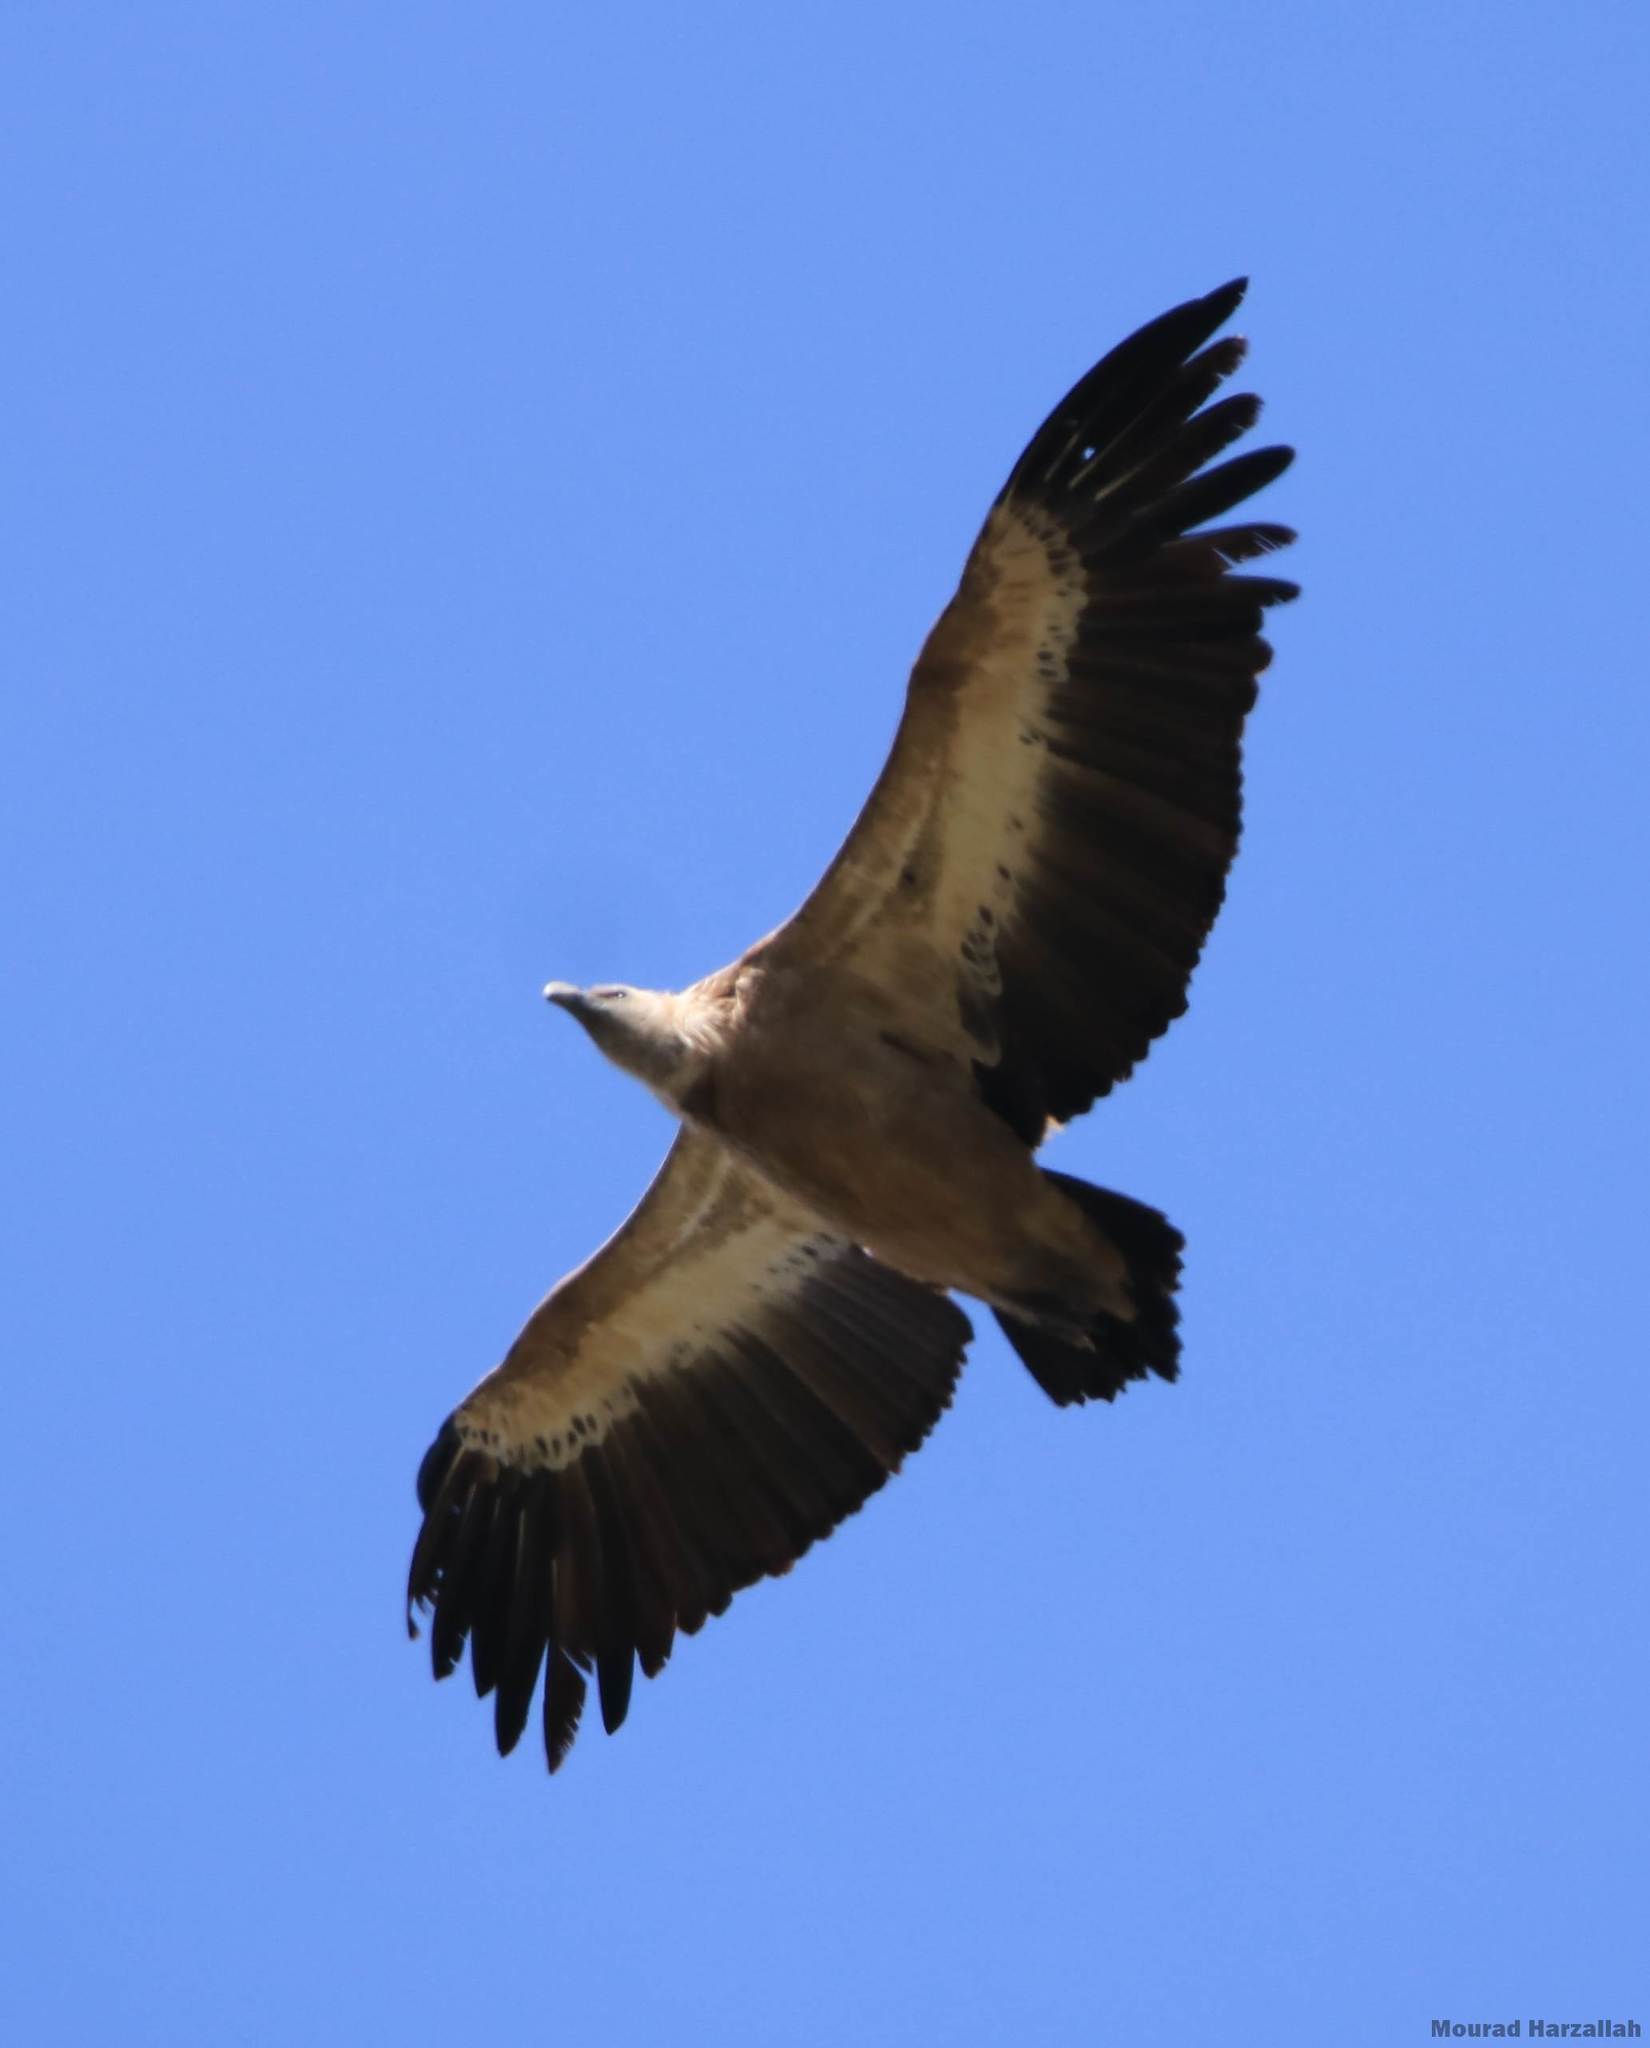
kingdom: Animalia
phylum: Chordata
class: Aves
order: Accipitriformes
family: Accipitridae
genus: Gyps
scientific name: Gyps fulvus
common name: Griffon vulture
